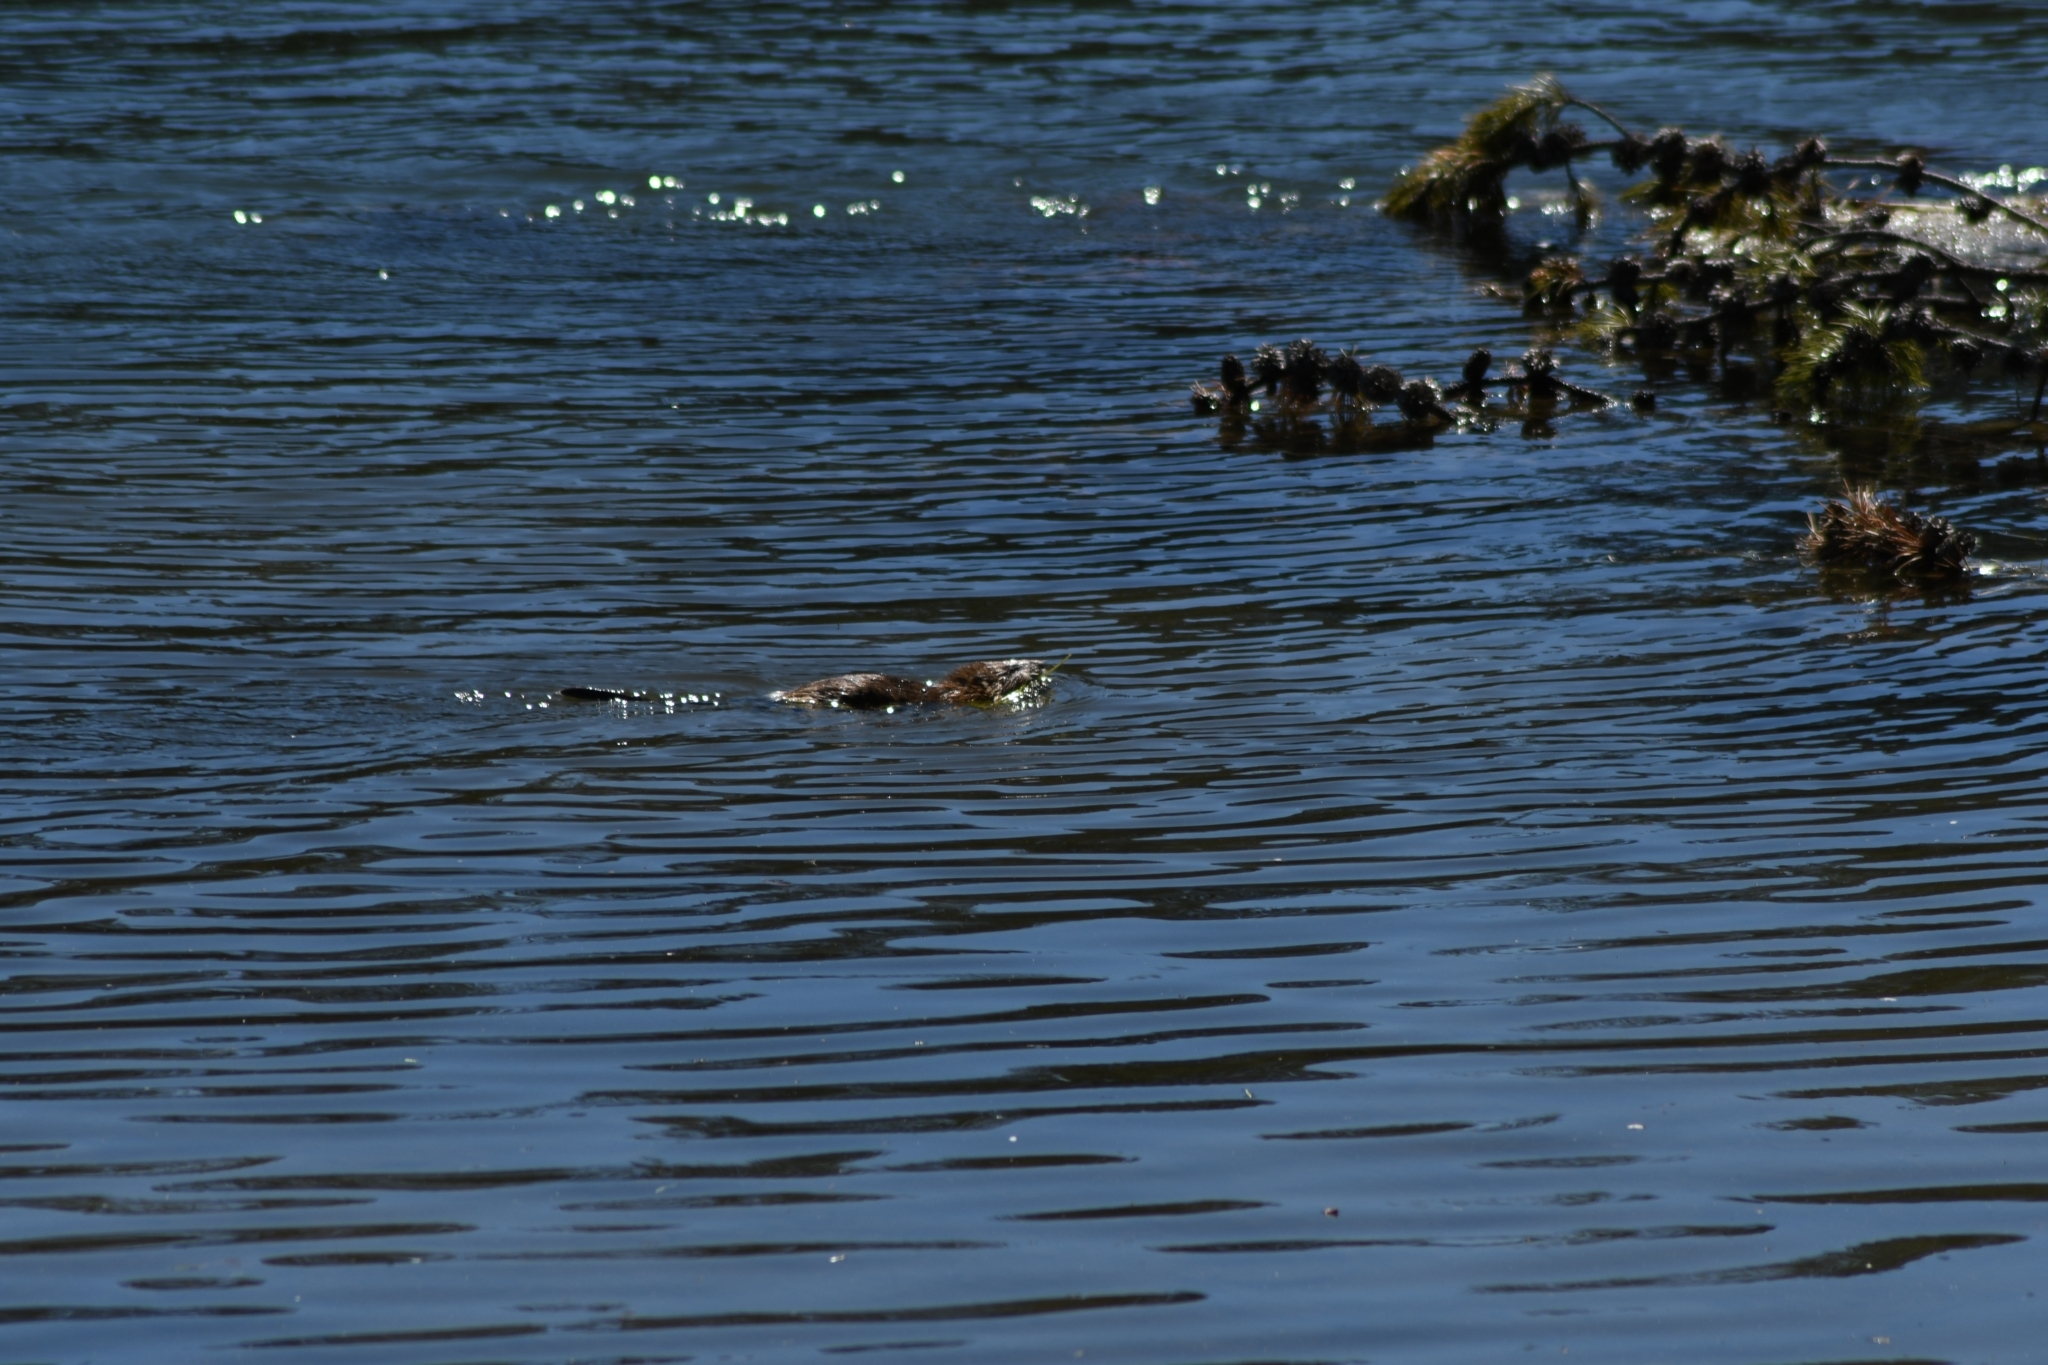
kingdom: Animalia
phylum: Chordata
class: Mammalia
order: Rodentia
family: Cricetidae
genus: Ondatra
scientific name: Ondatra zibethicus
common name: Muskrat
